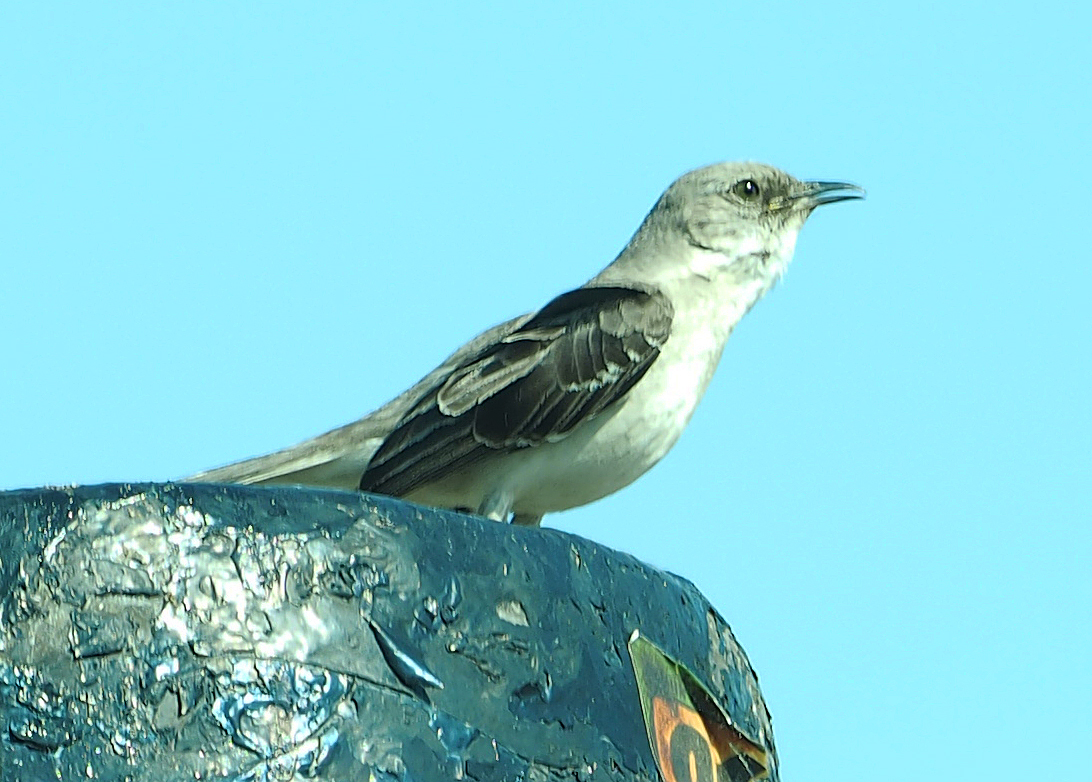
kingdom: Animalia
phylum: Chordata
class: Aves
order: Passeriformes
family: Mimidae
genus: Mimus
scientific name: Mimus polyglottos
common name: Northern mockingbird
